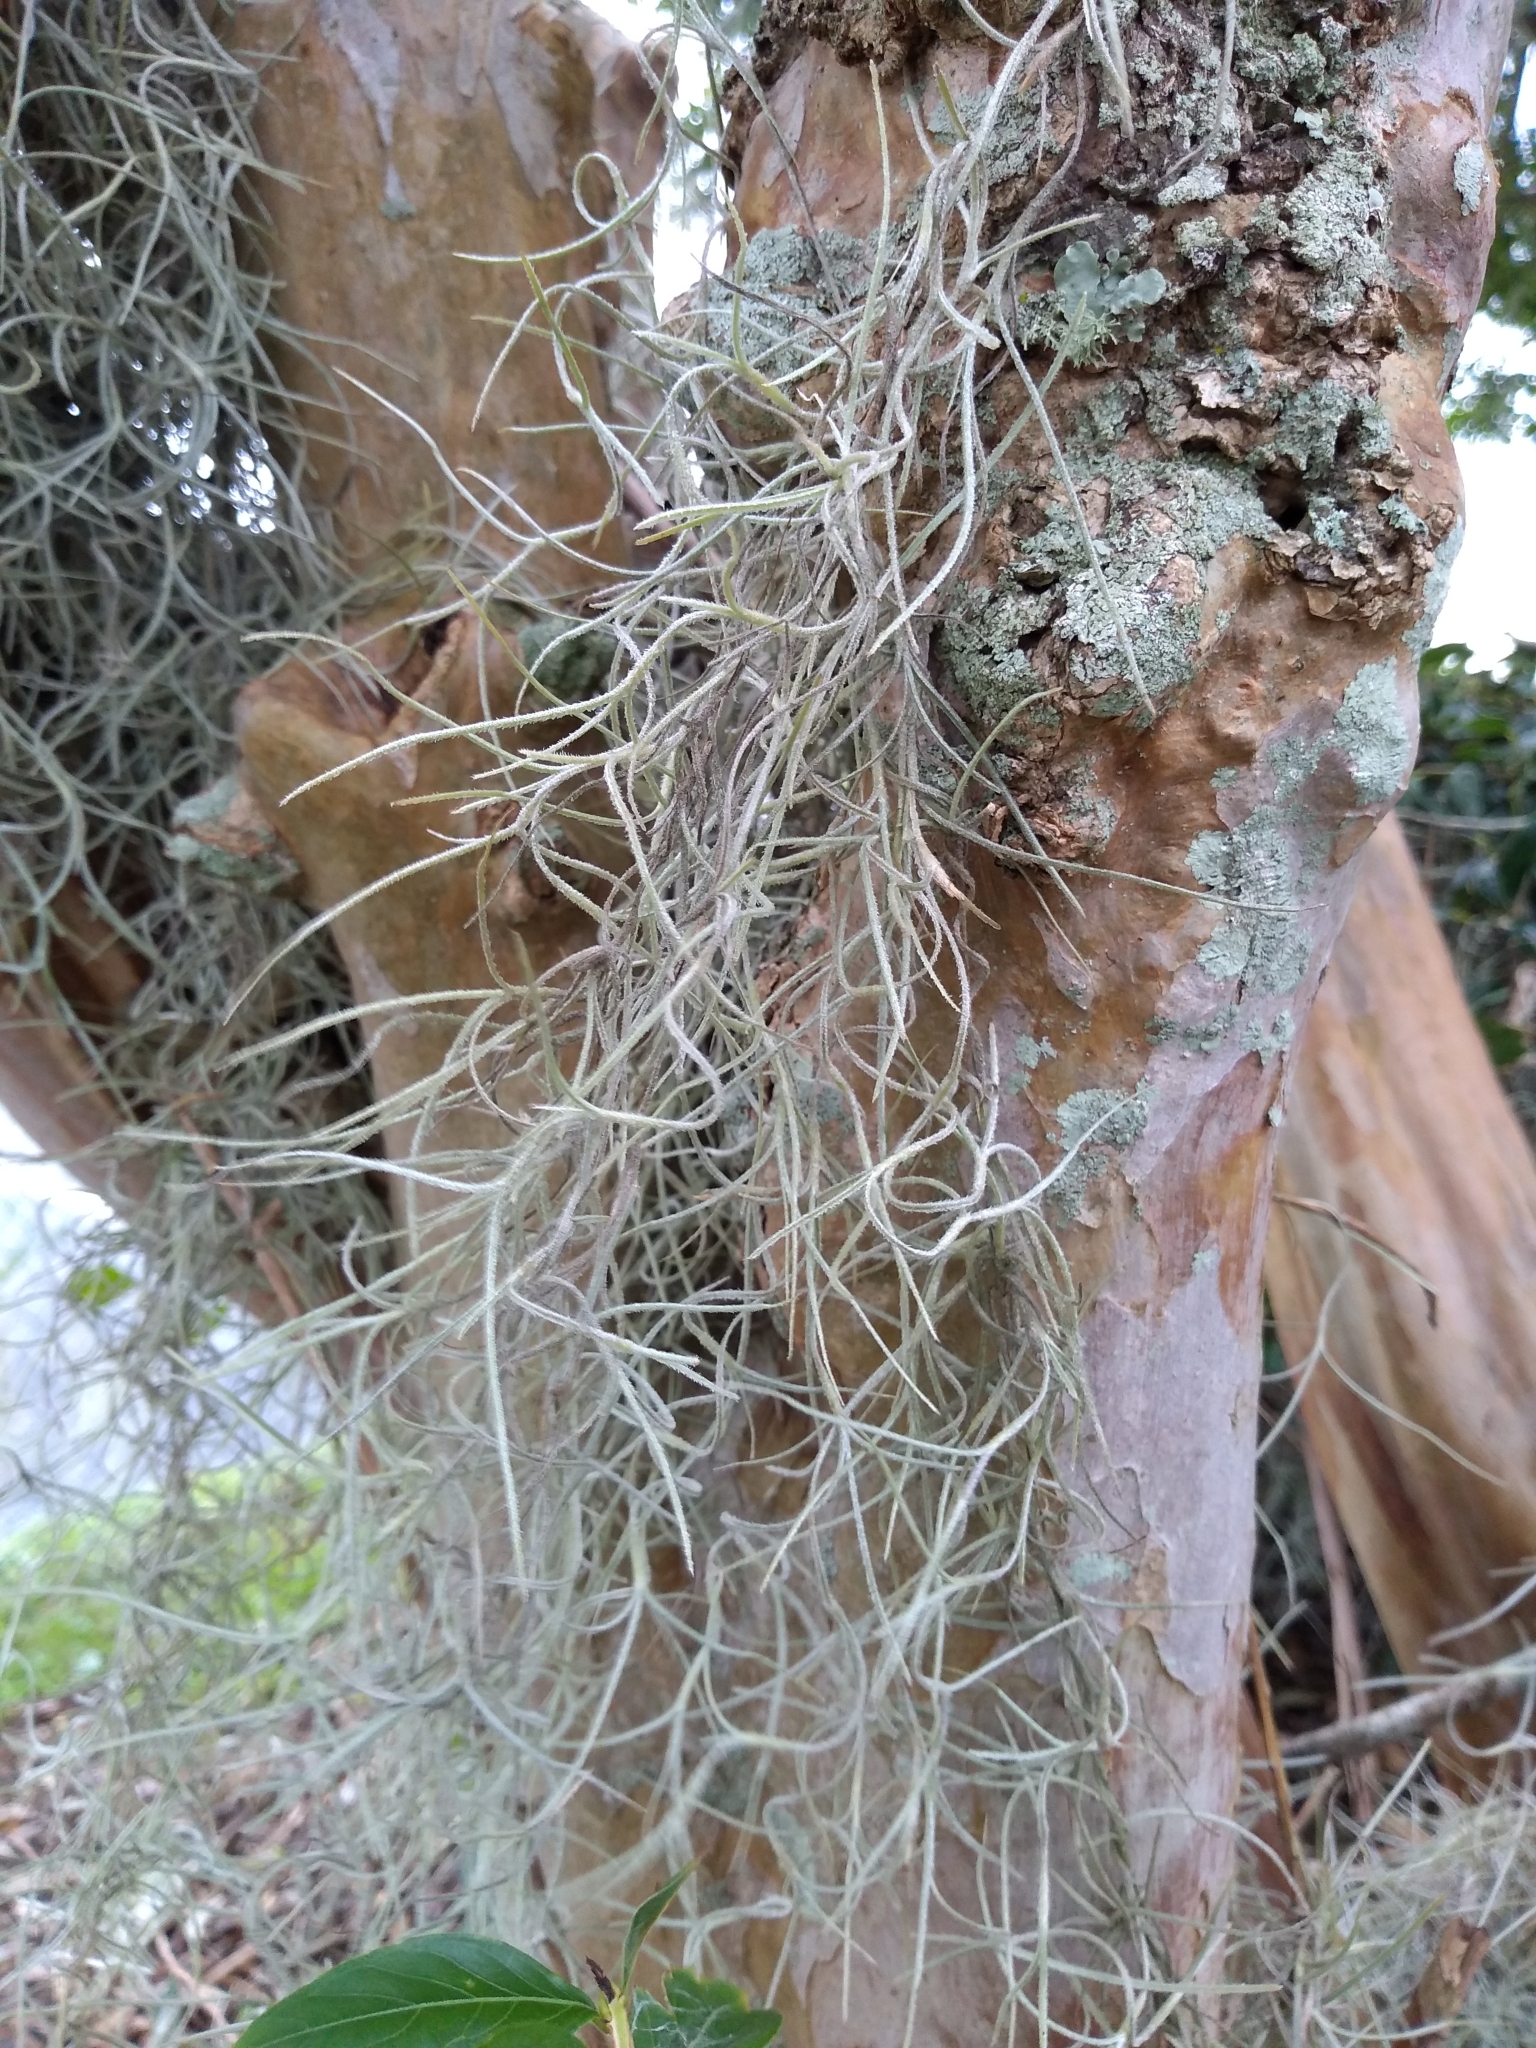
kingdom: Plantae
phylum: Tracheophyta
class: Liliopsida
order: Poales
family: Bromeliaceae
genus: Tillandsia
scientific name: Tillandsia usneoides
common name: Spanish moss
